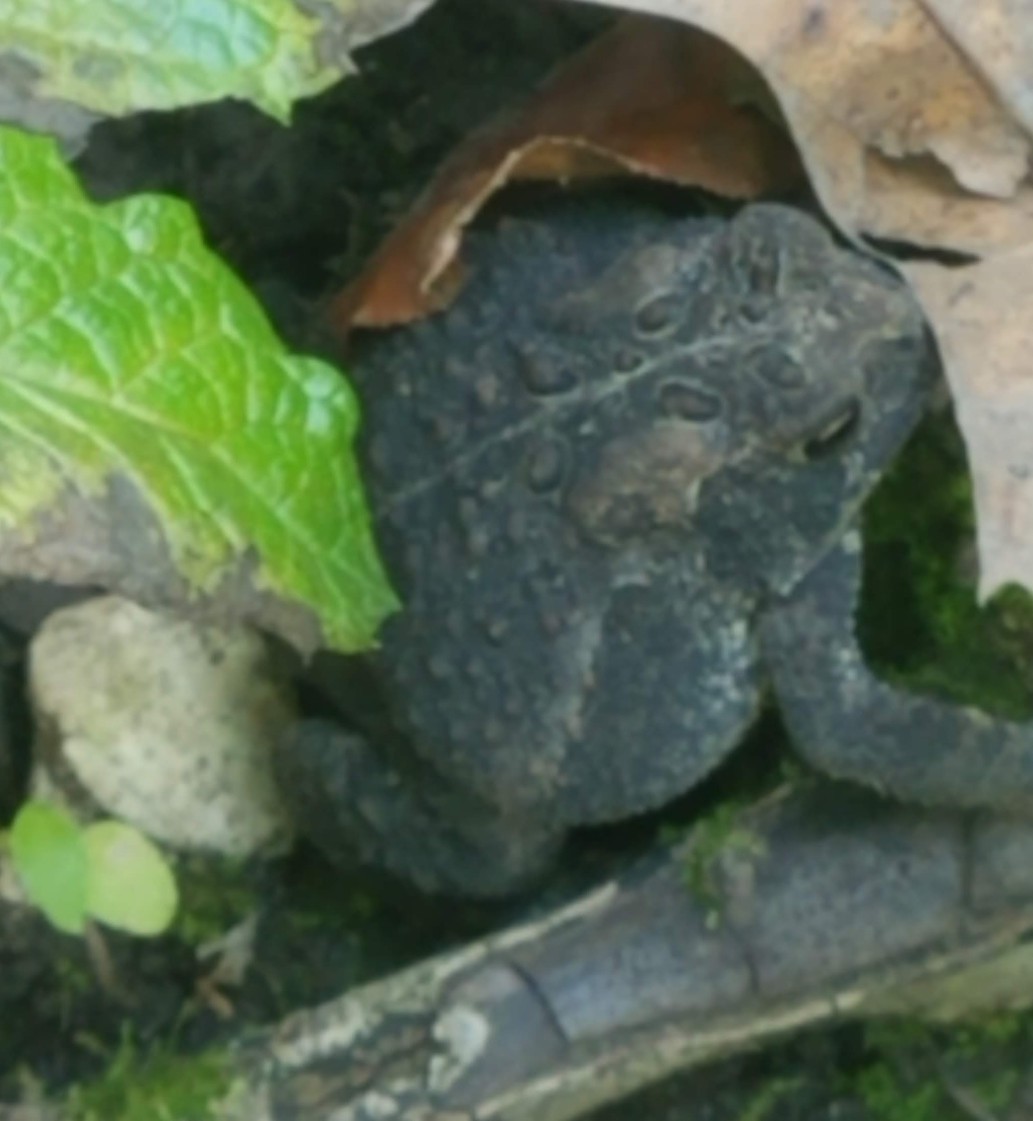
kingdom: Animalia
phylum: Chordata
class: Amphibia
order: Anura
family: Bufonidae
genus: Anaxyrus
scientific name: Anaxyrus americanus
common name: American toad
